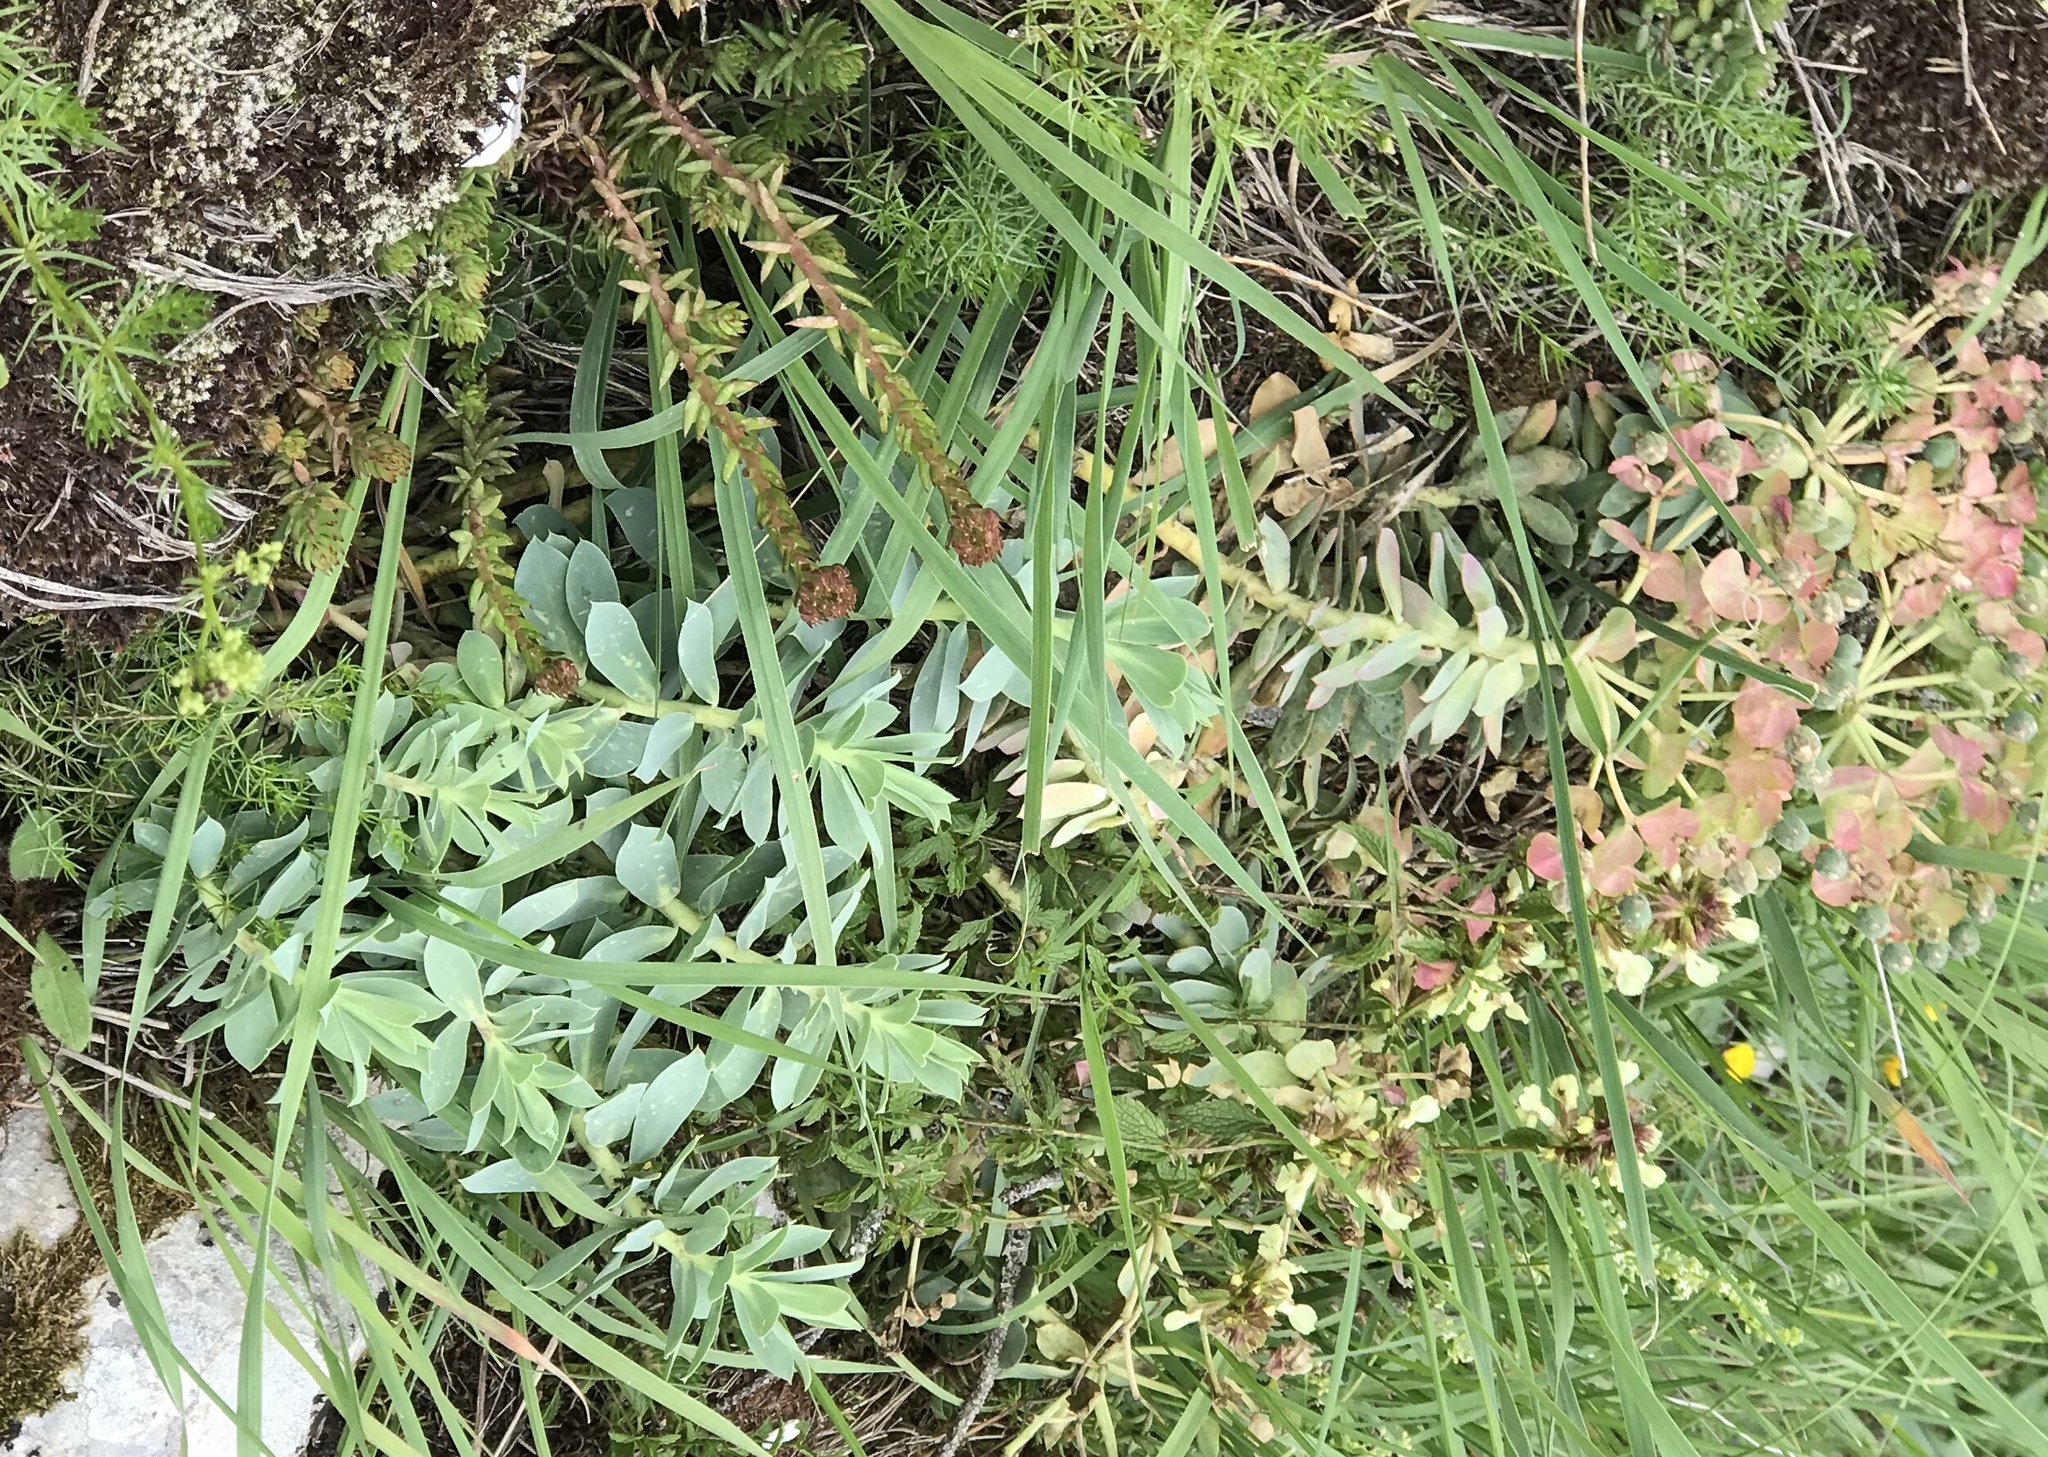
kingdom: Plantae
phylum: Tracheophyta
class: Magnoliopsida
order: Malpighiales
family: Euphorbiaceae
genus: Euphorbia
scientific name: Euphorbia myrsinites
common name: Myrtle spurge
